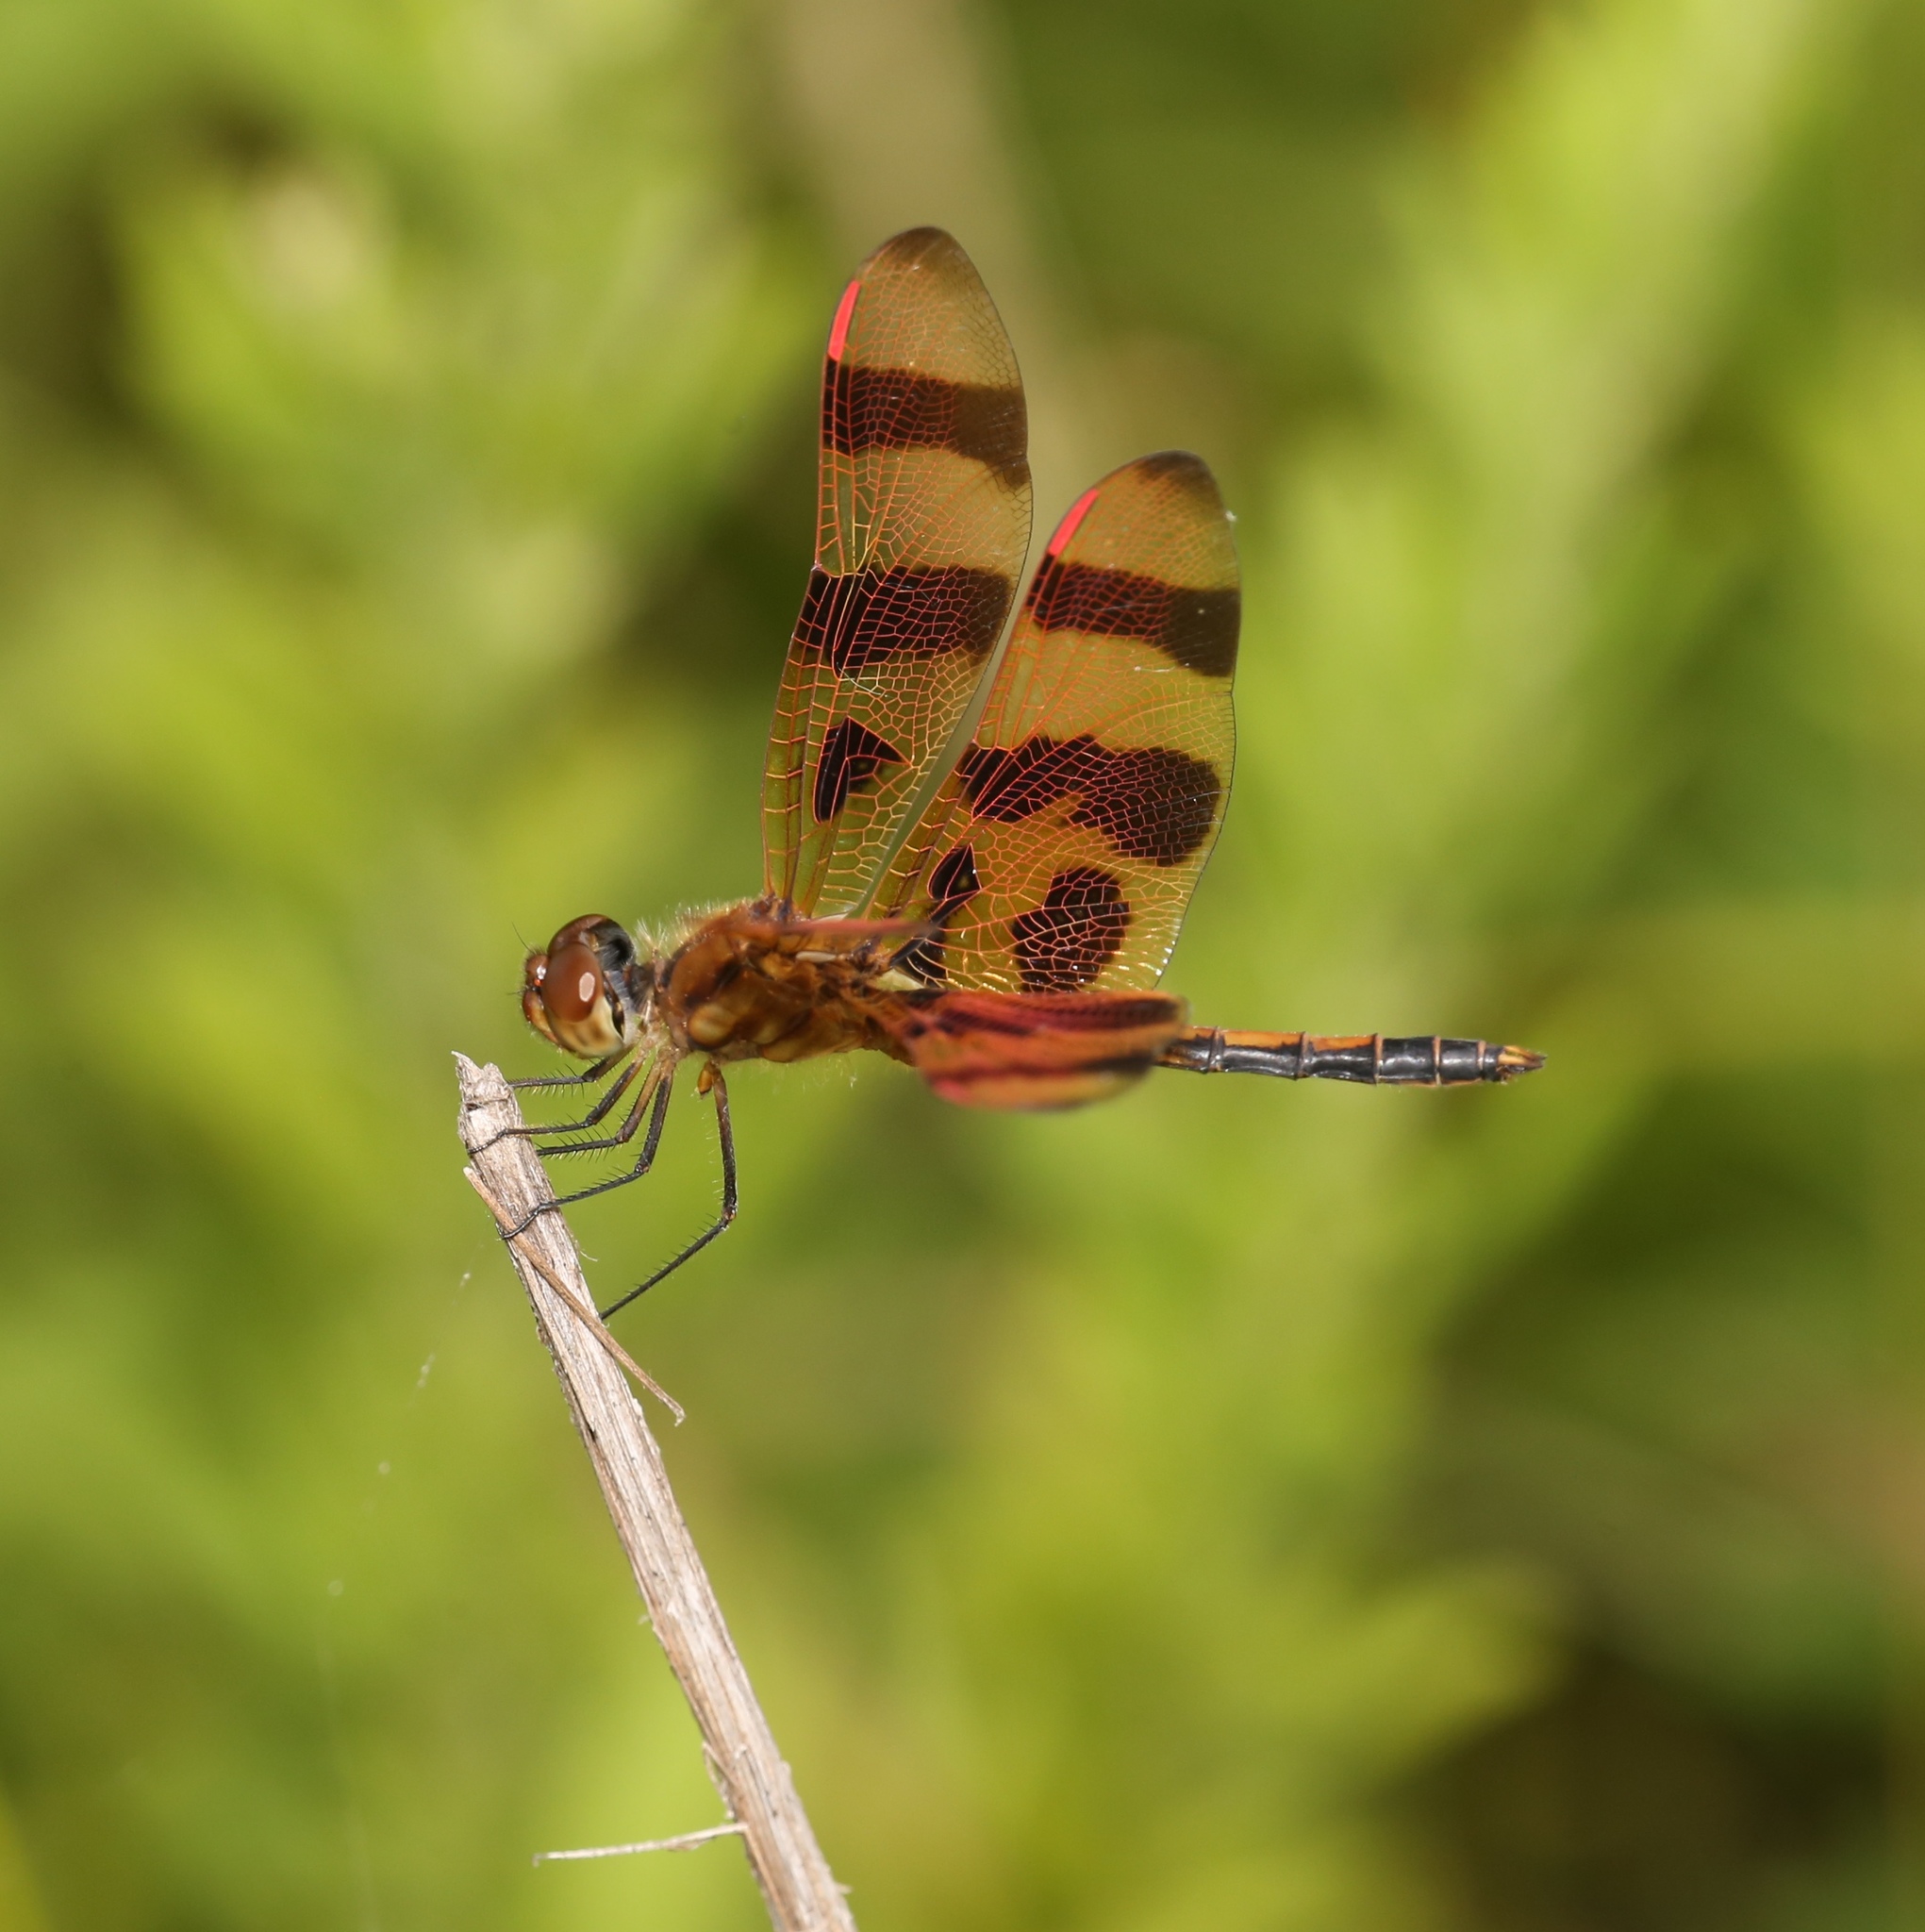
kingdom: Animalia
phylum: Arthropoda
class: Insecta
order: Odonata
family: Libellulidae
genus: Celithemis
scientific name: Celithemis eponina
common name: Halloween pennant
